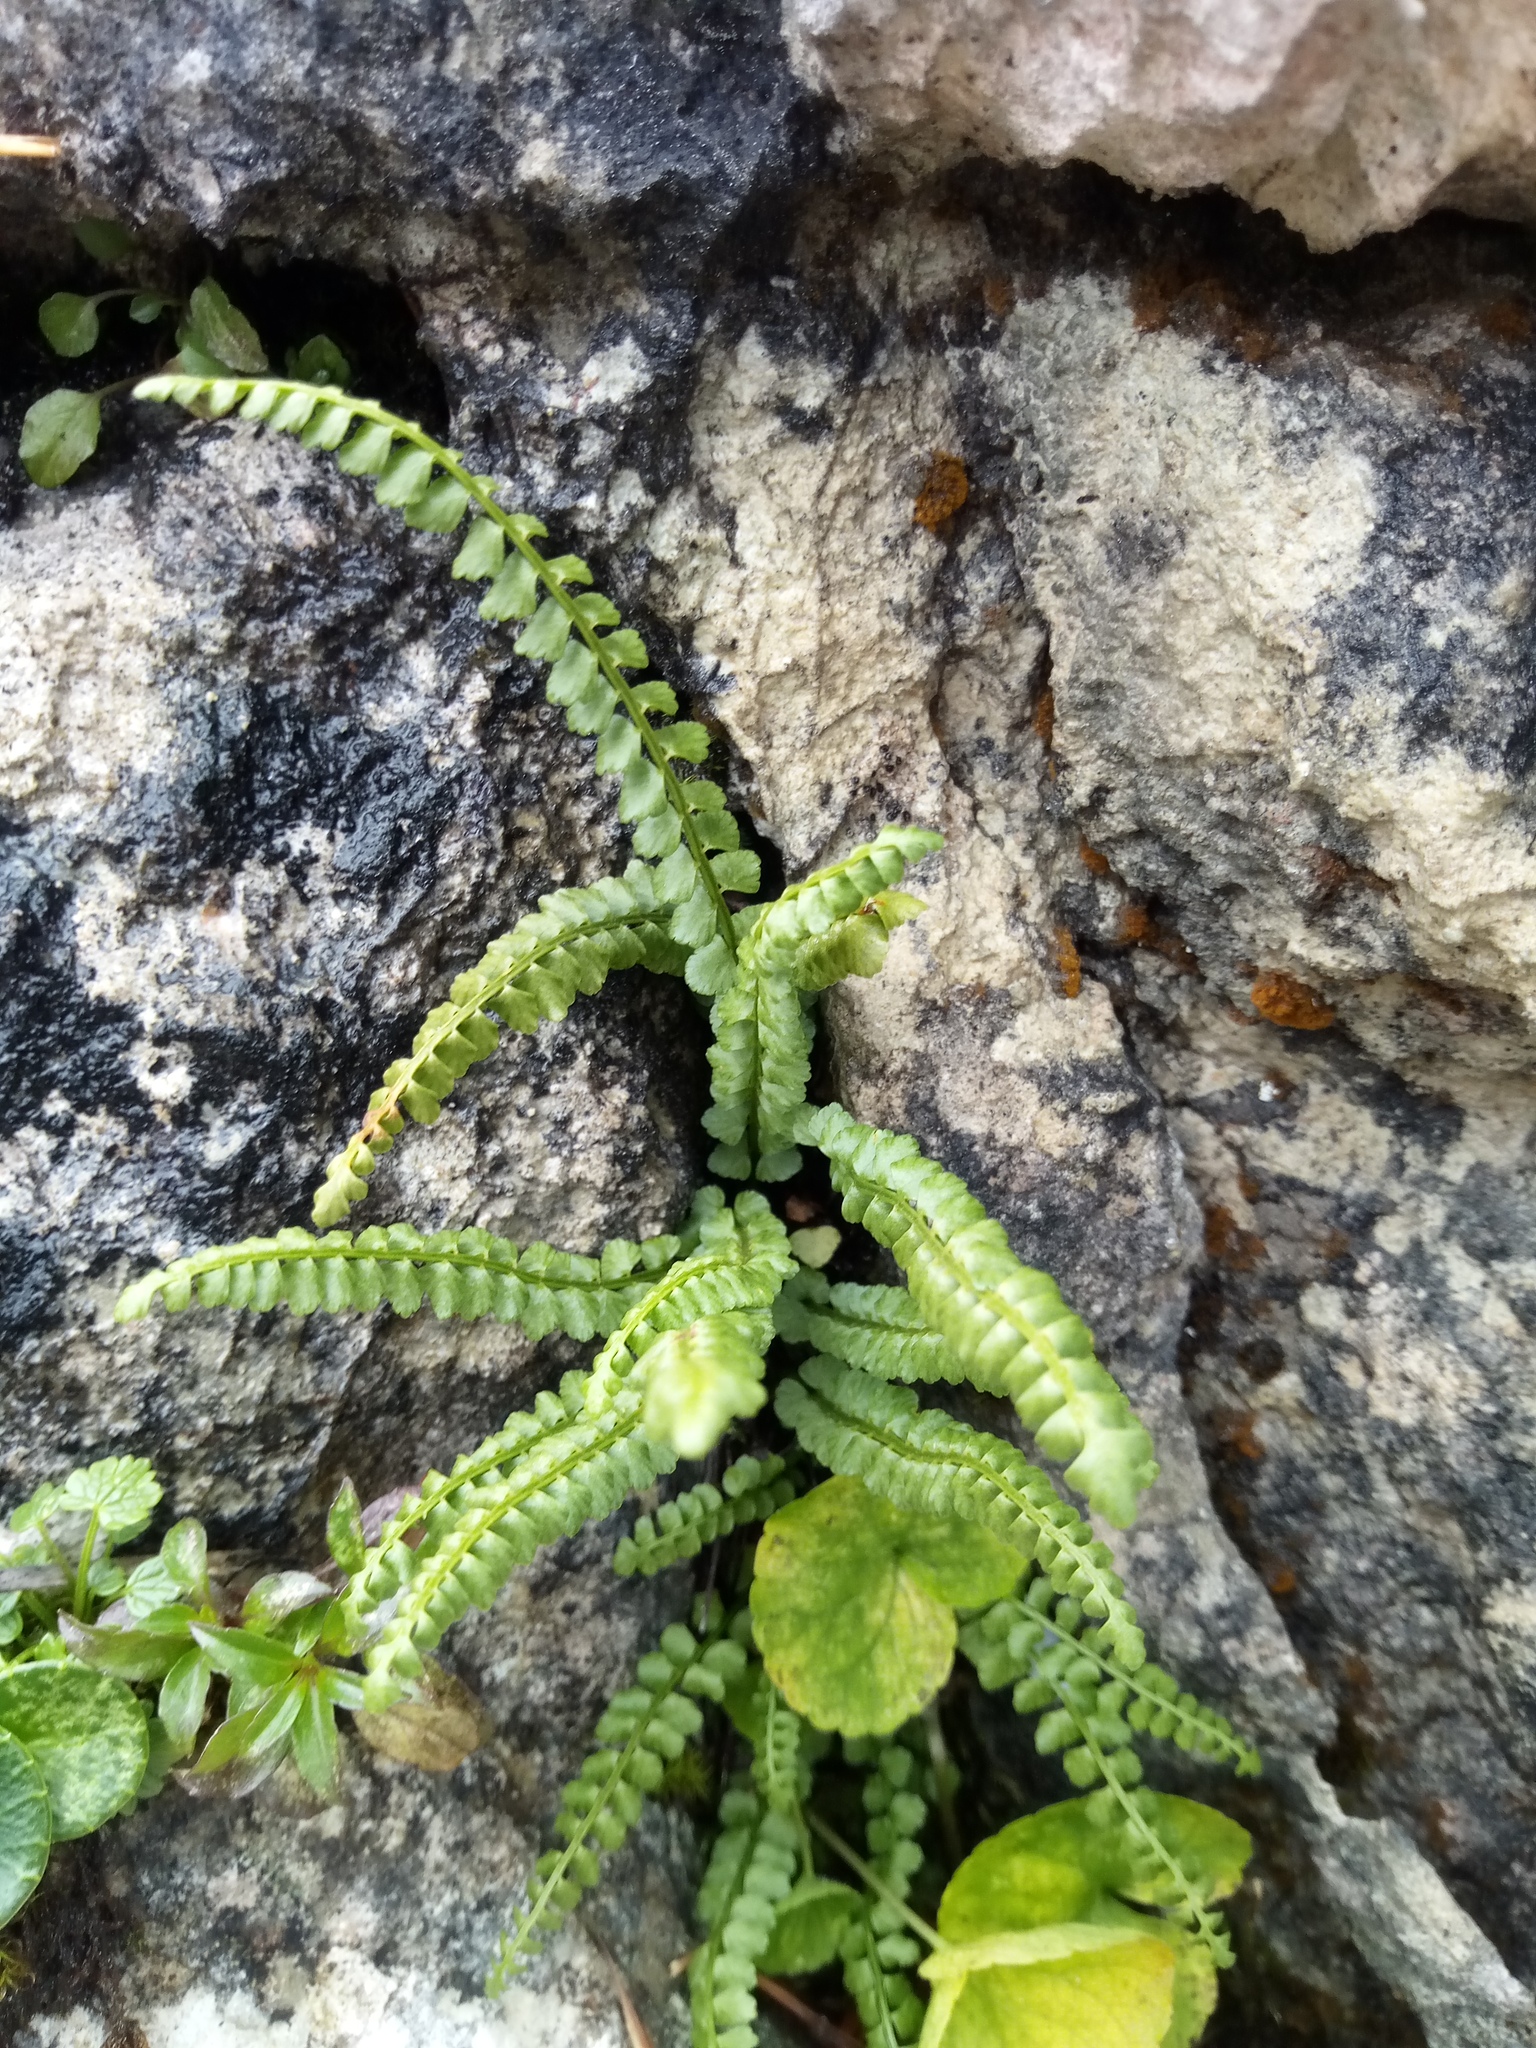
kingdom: Plantae
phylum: Tracheophyta
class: Polypodiopsida
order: Polypodiales
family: Aspleniaceae
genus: Asplenium
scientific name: Asplenium viride
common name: Green spleenwort
